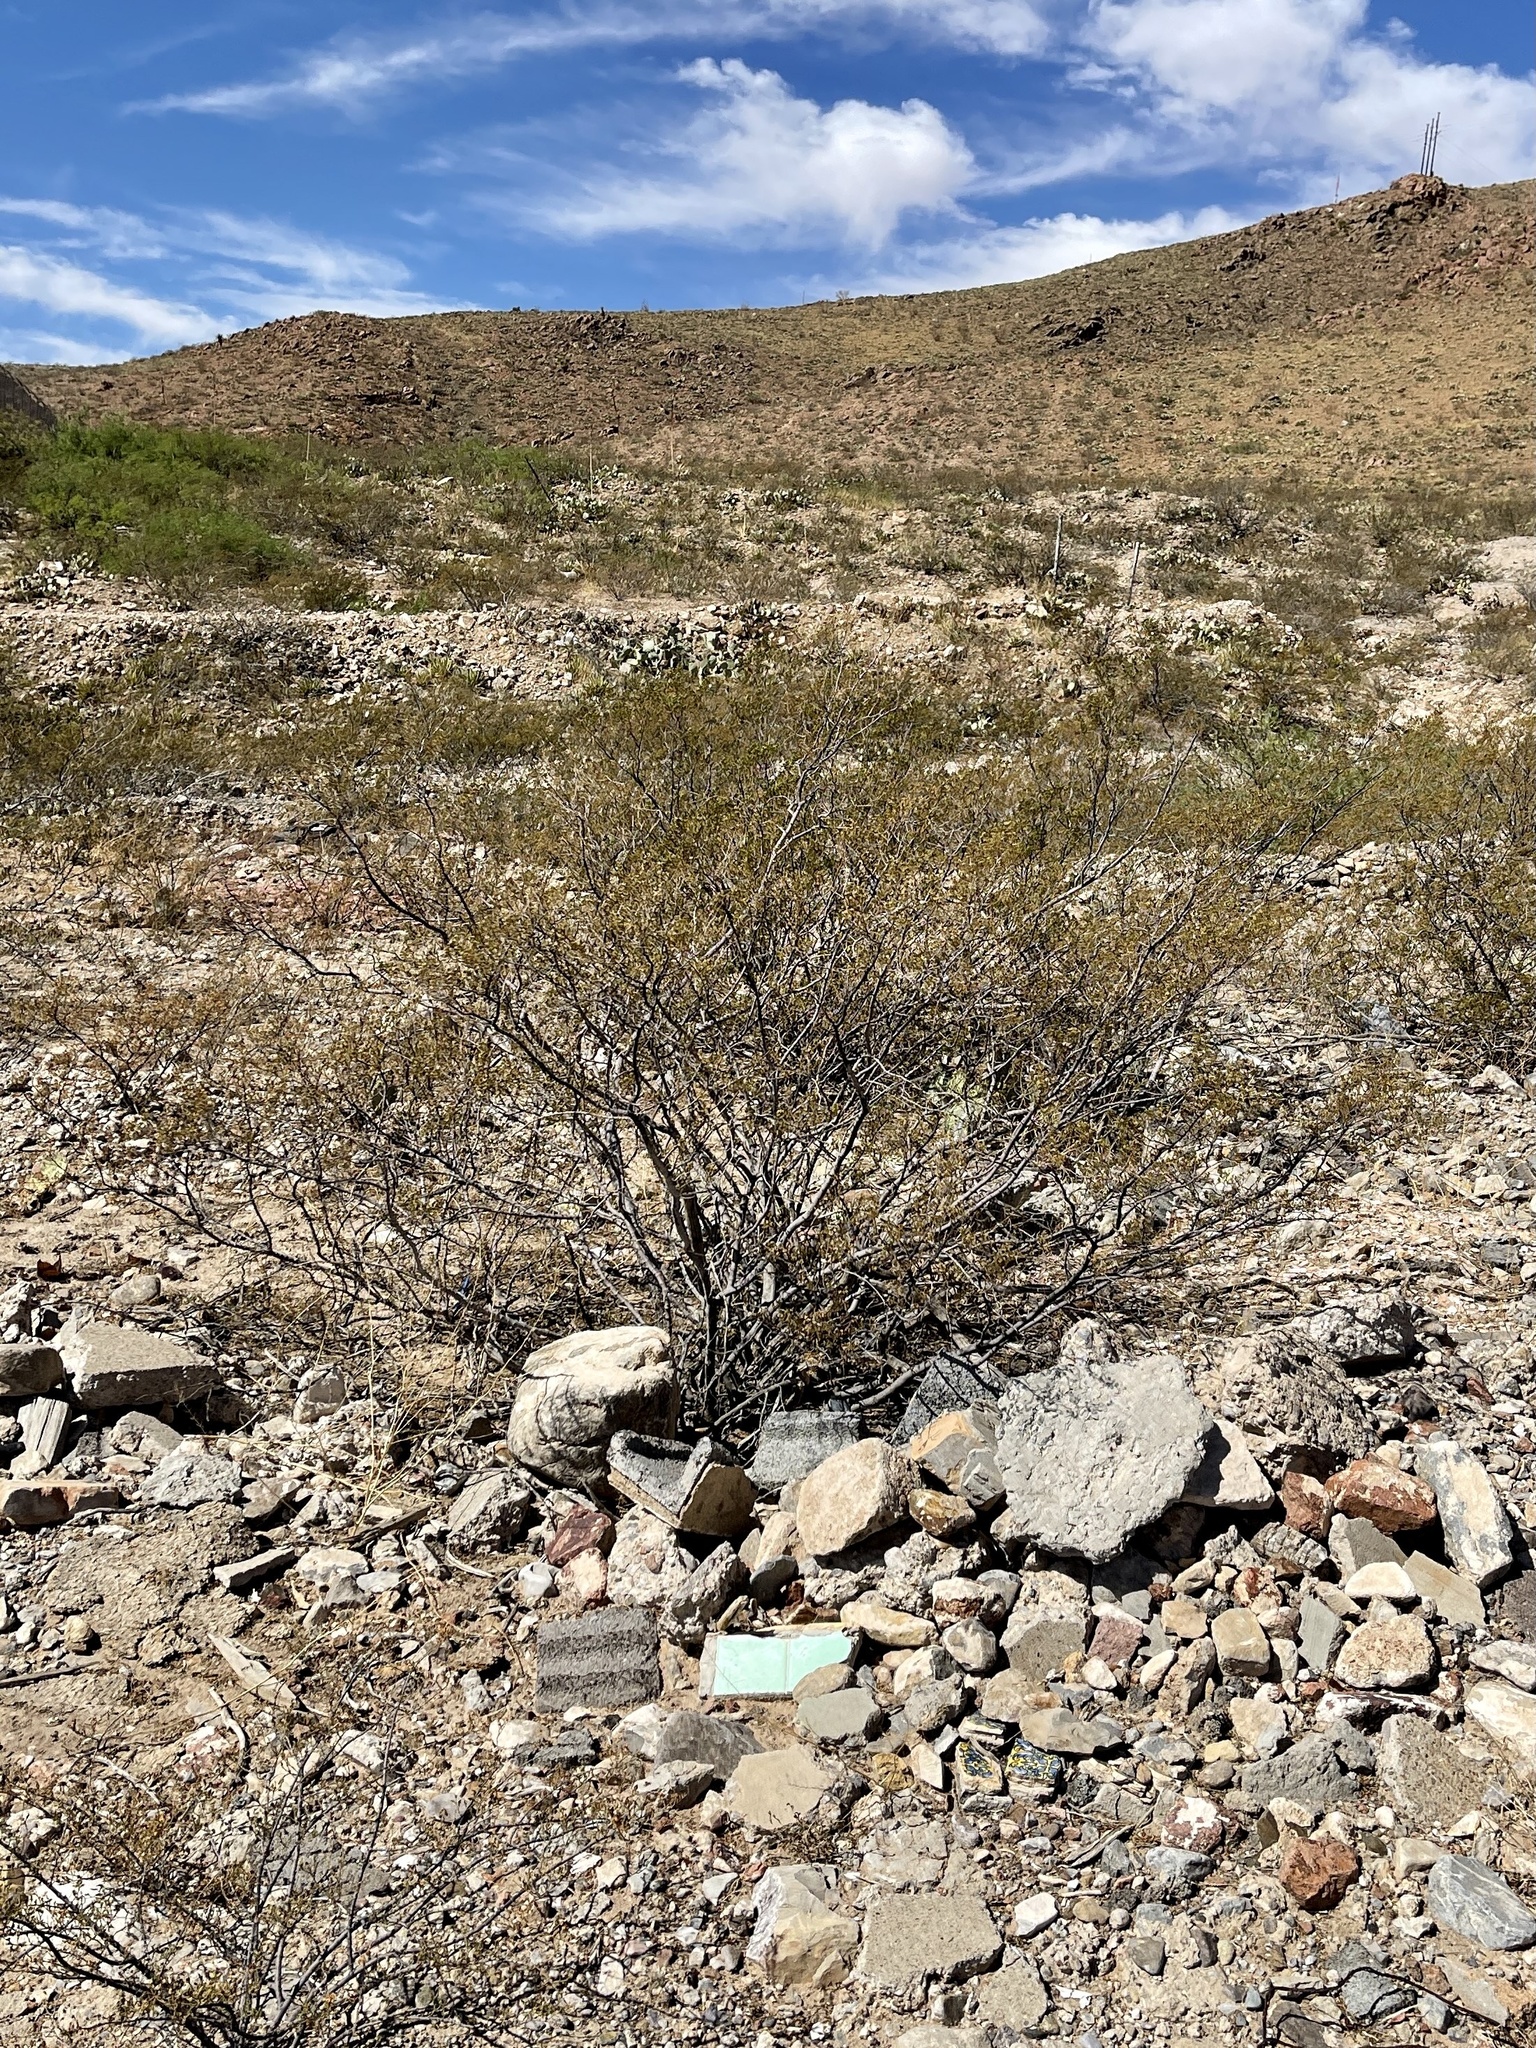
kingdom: Plantae
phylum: Tracheophyta
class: Magnoliopsida
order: Zygophyllales
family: Zygophyllaceae
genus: Larrea
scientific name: Larrea tridentata
